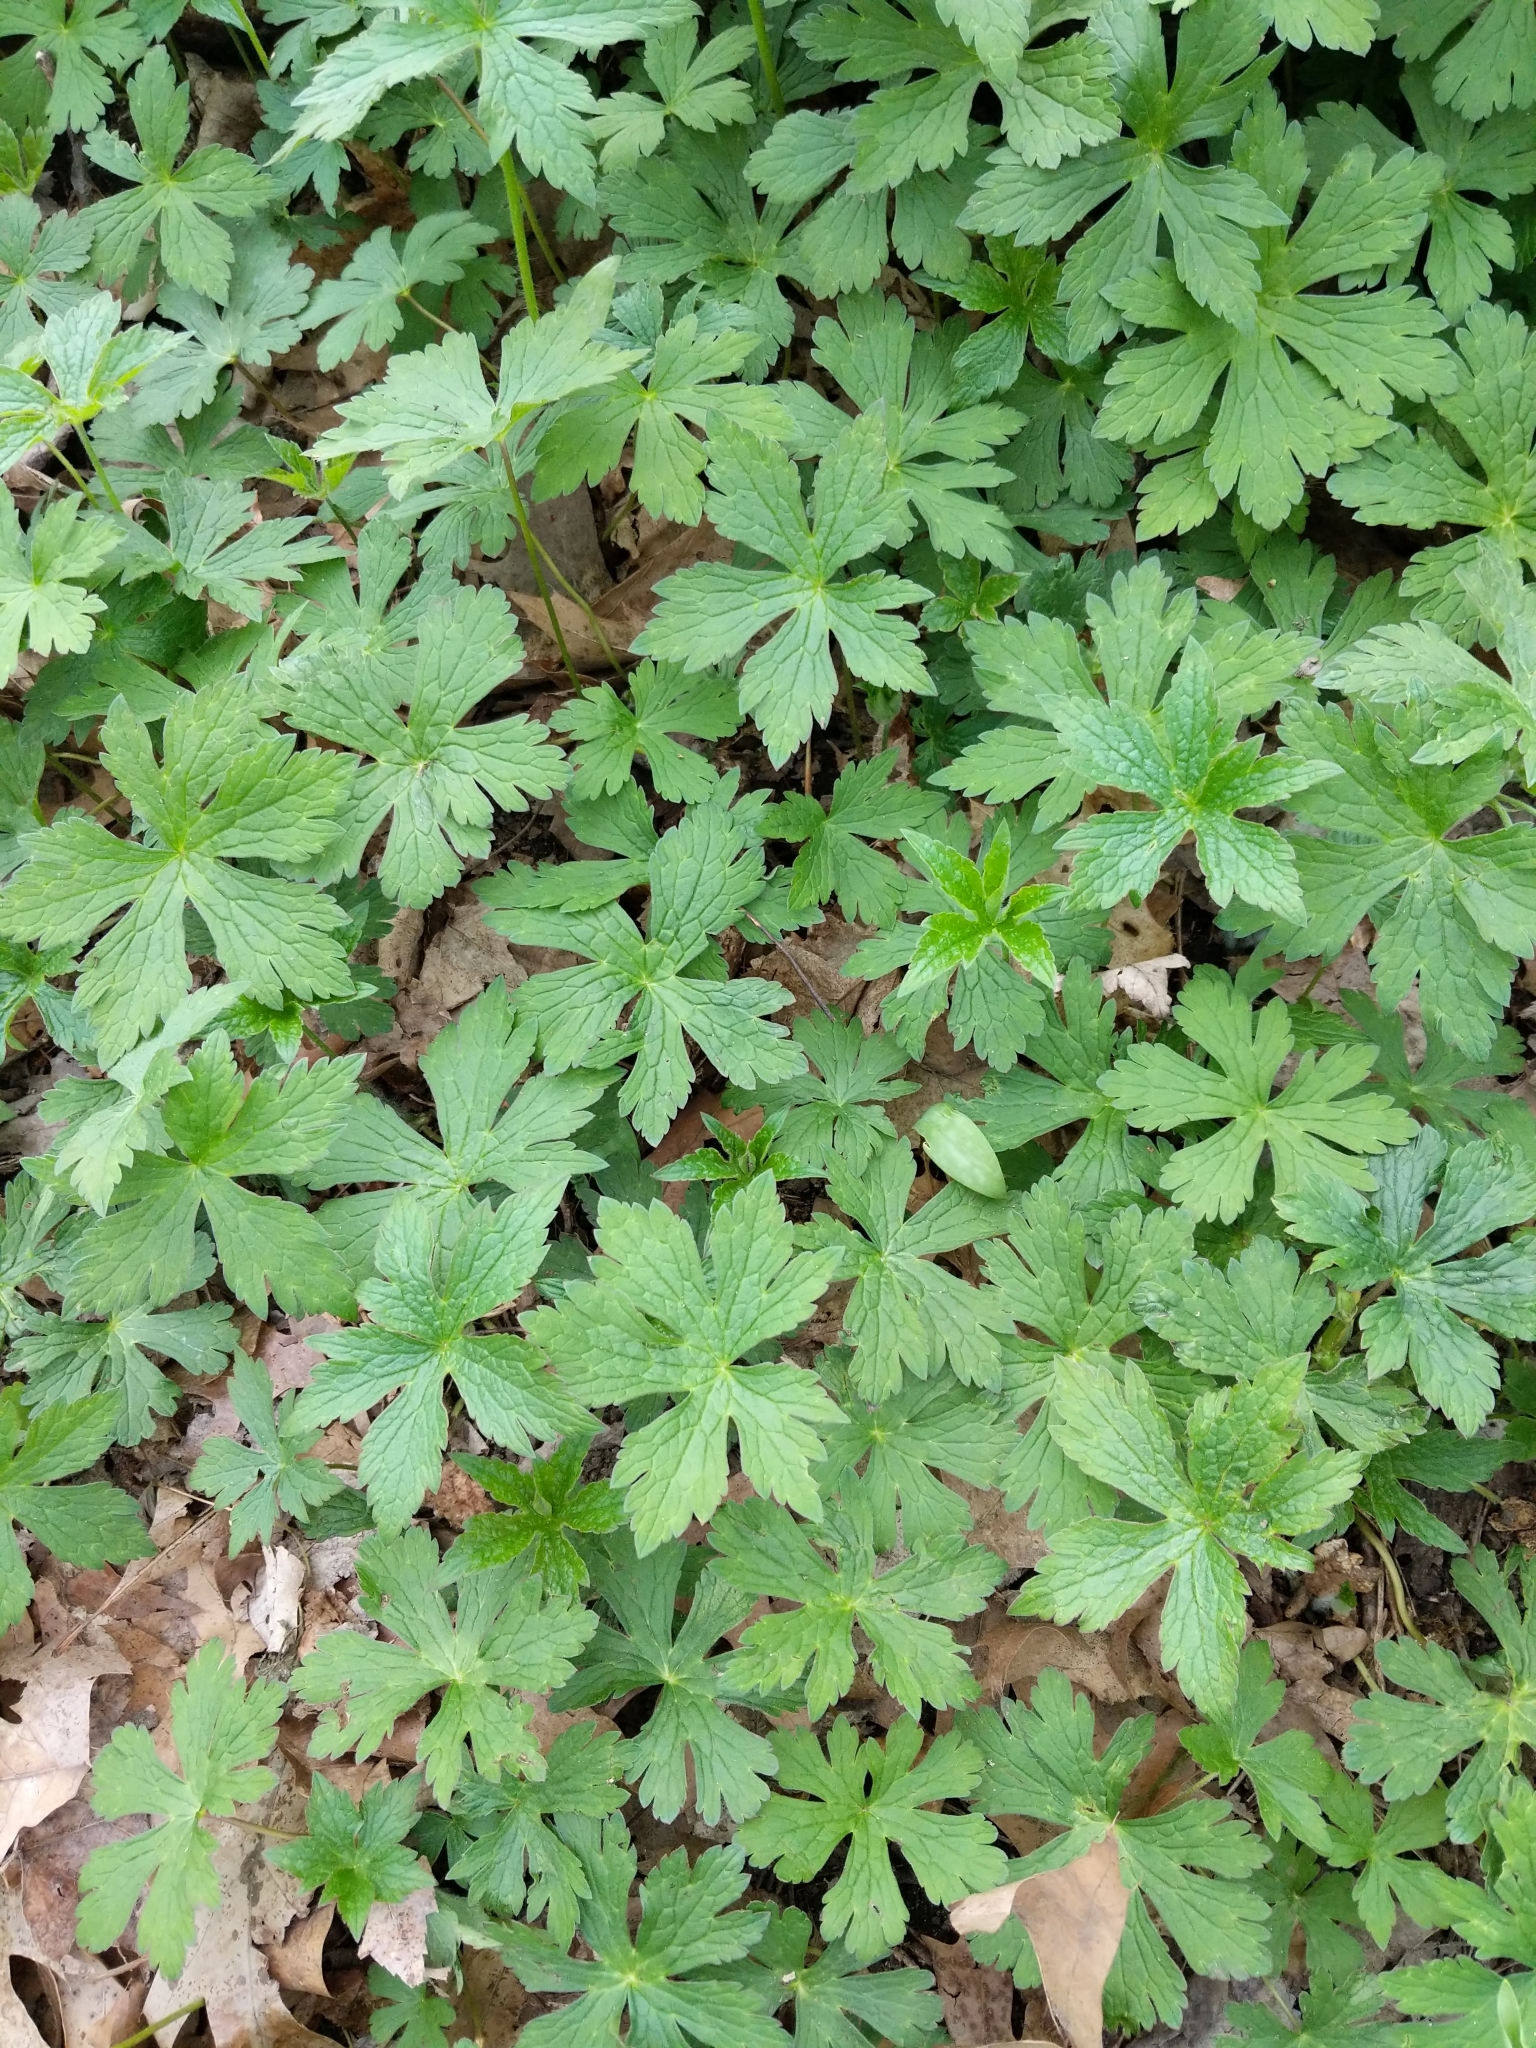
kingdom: Plantae
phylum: Tracheophyta
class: Magnoliopsida
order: Geraniales
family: Geraniaceae
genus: Geranium
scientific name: Geranium maculatum
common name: Spotted geranium
